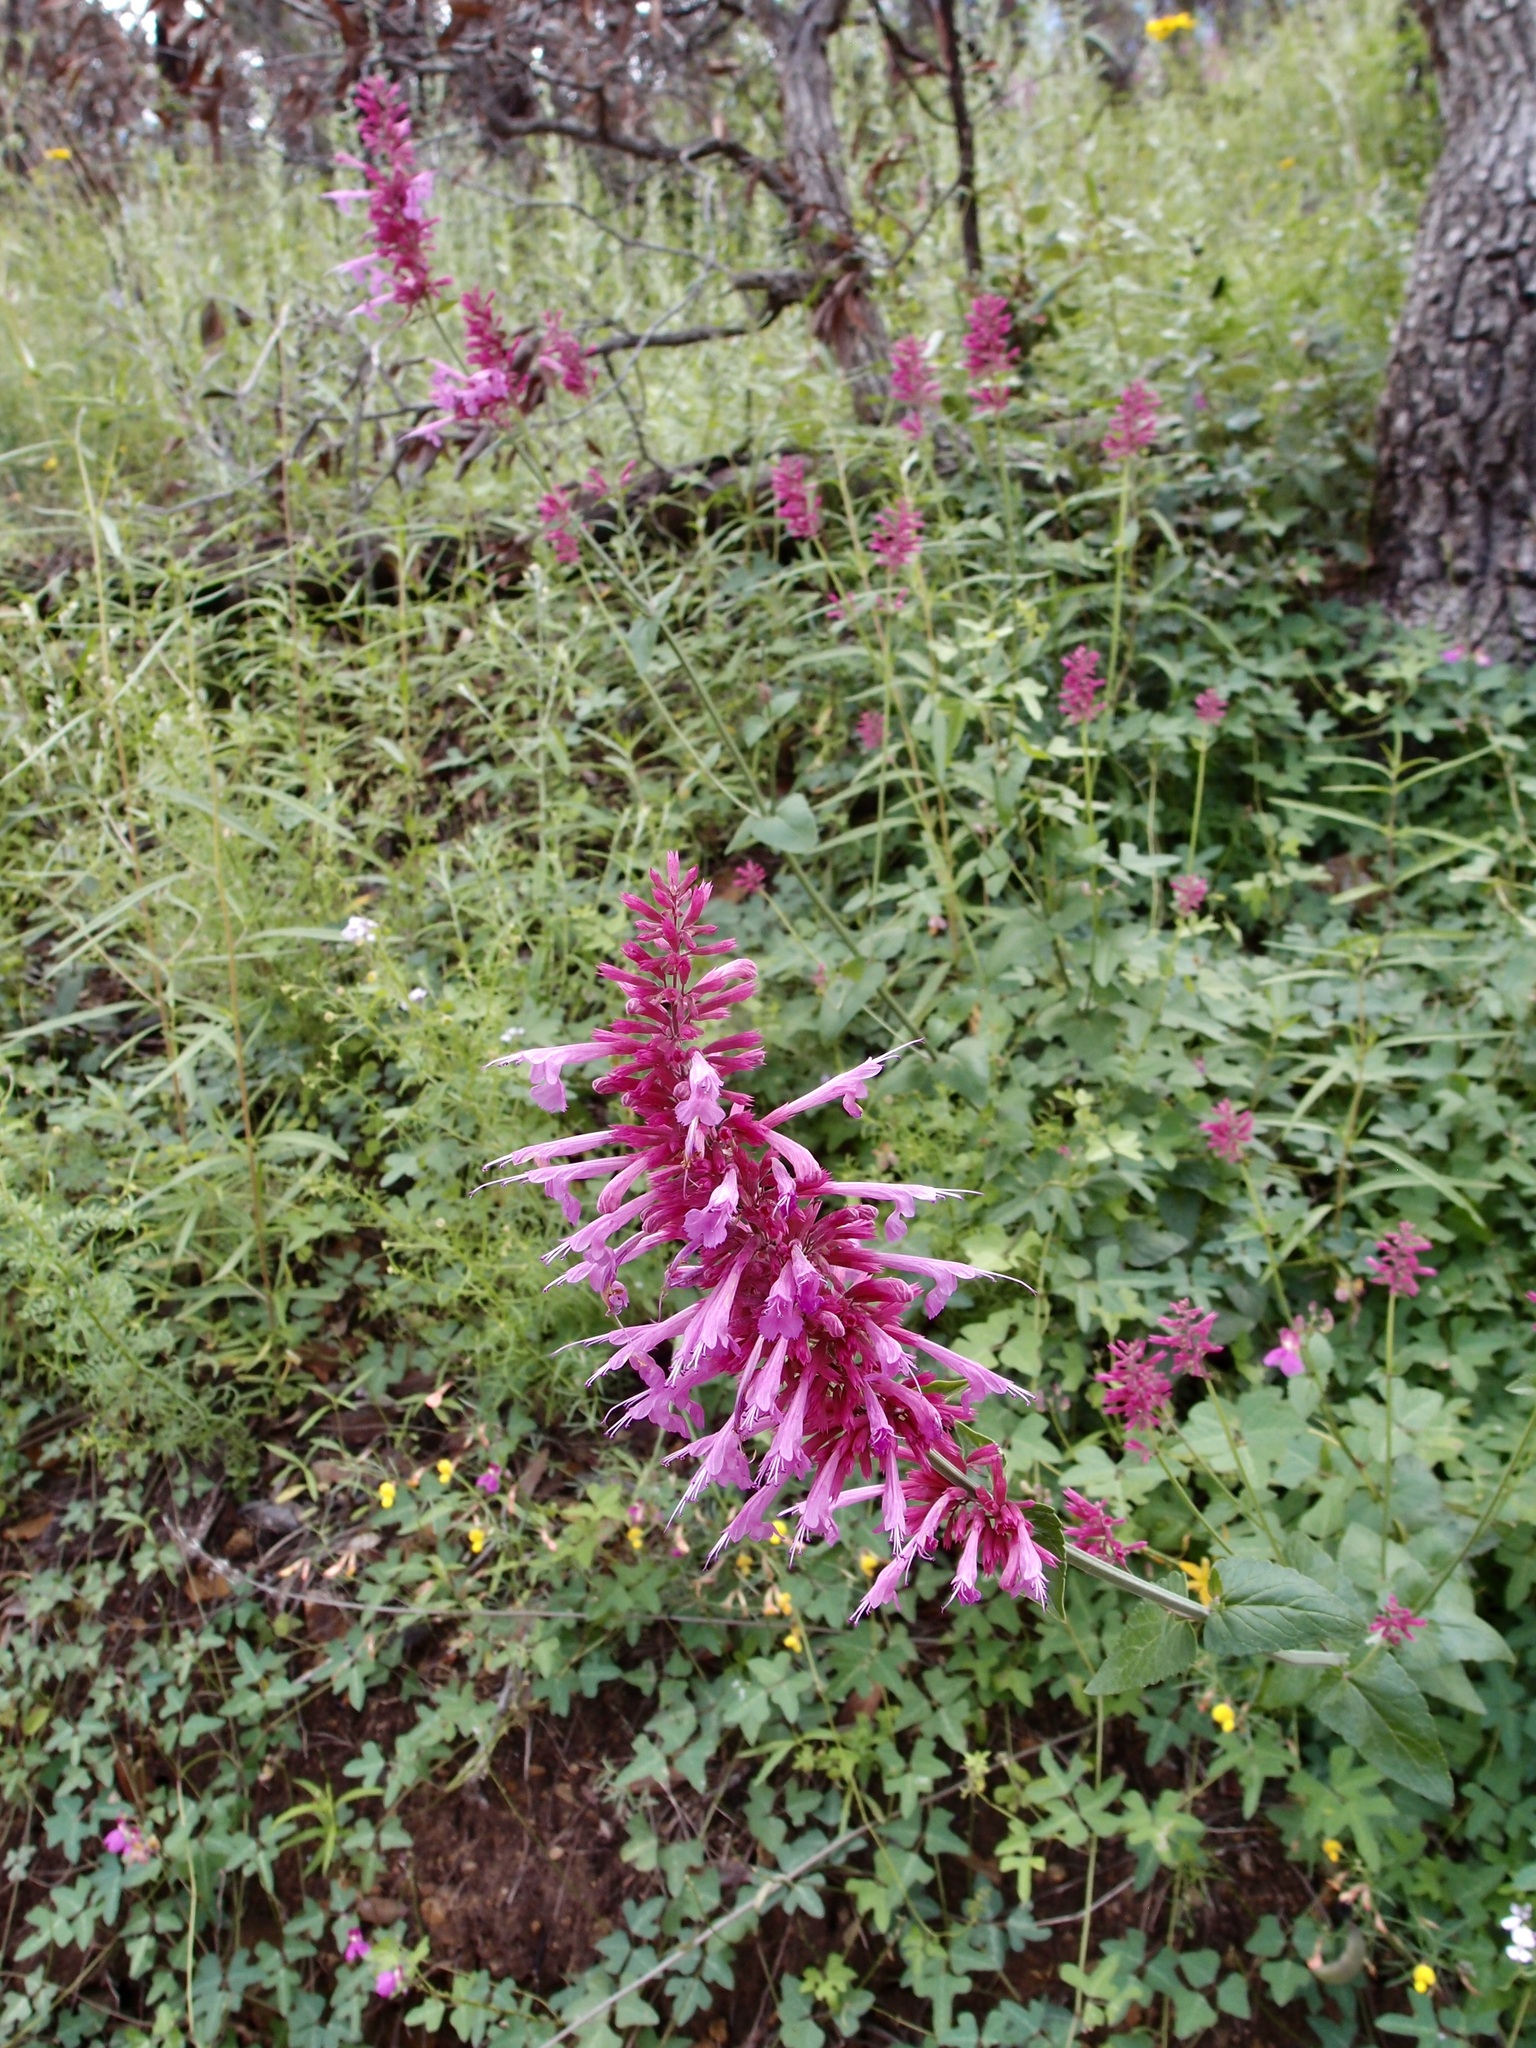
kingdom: Plantae
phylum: Tracheophyta
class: Magnoliopsida
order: Lamiales
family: Lamiaceae
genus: Agastache
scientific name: Agastache pallida
